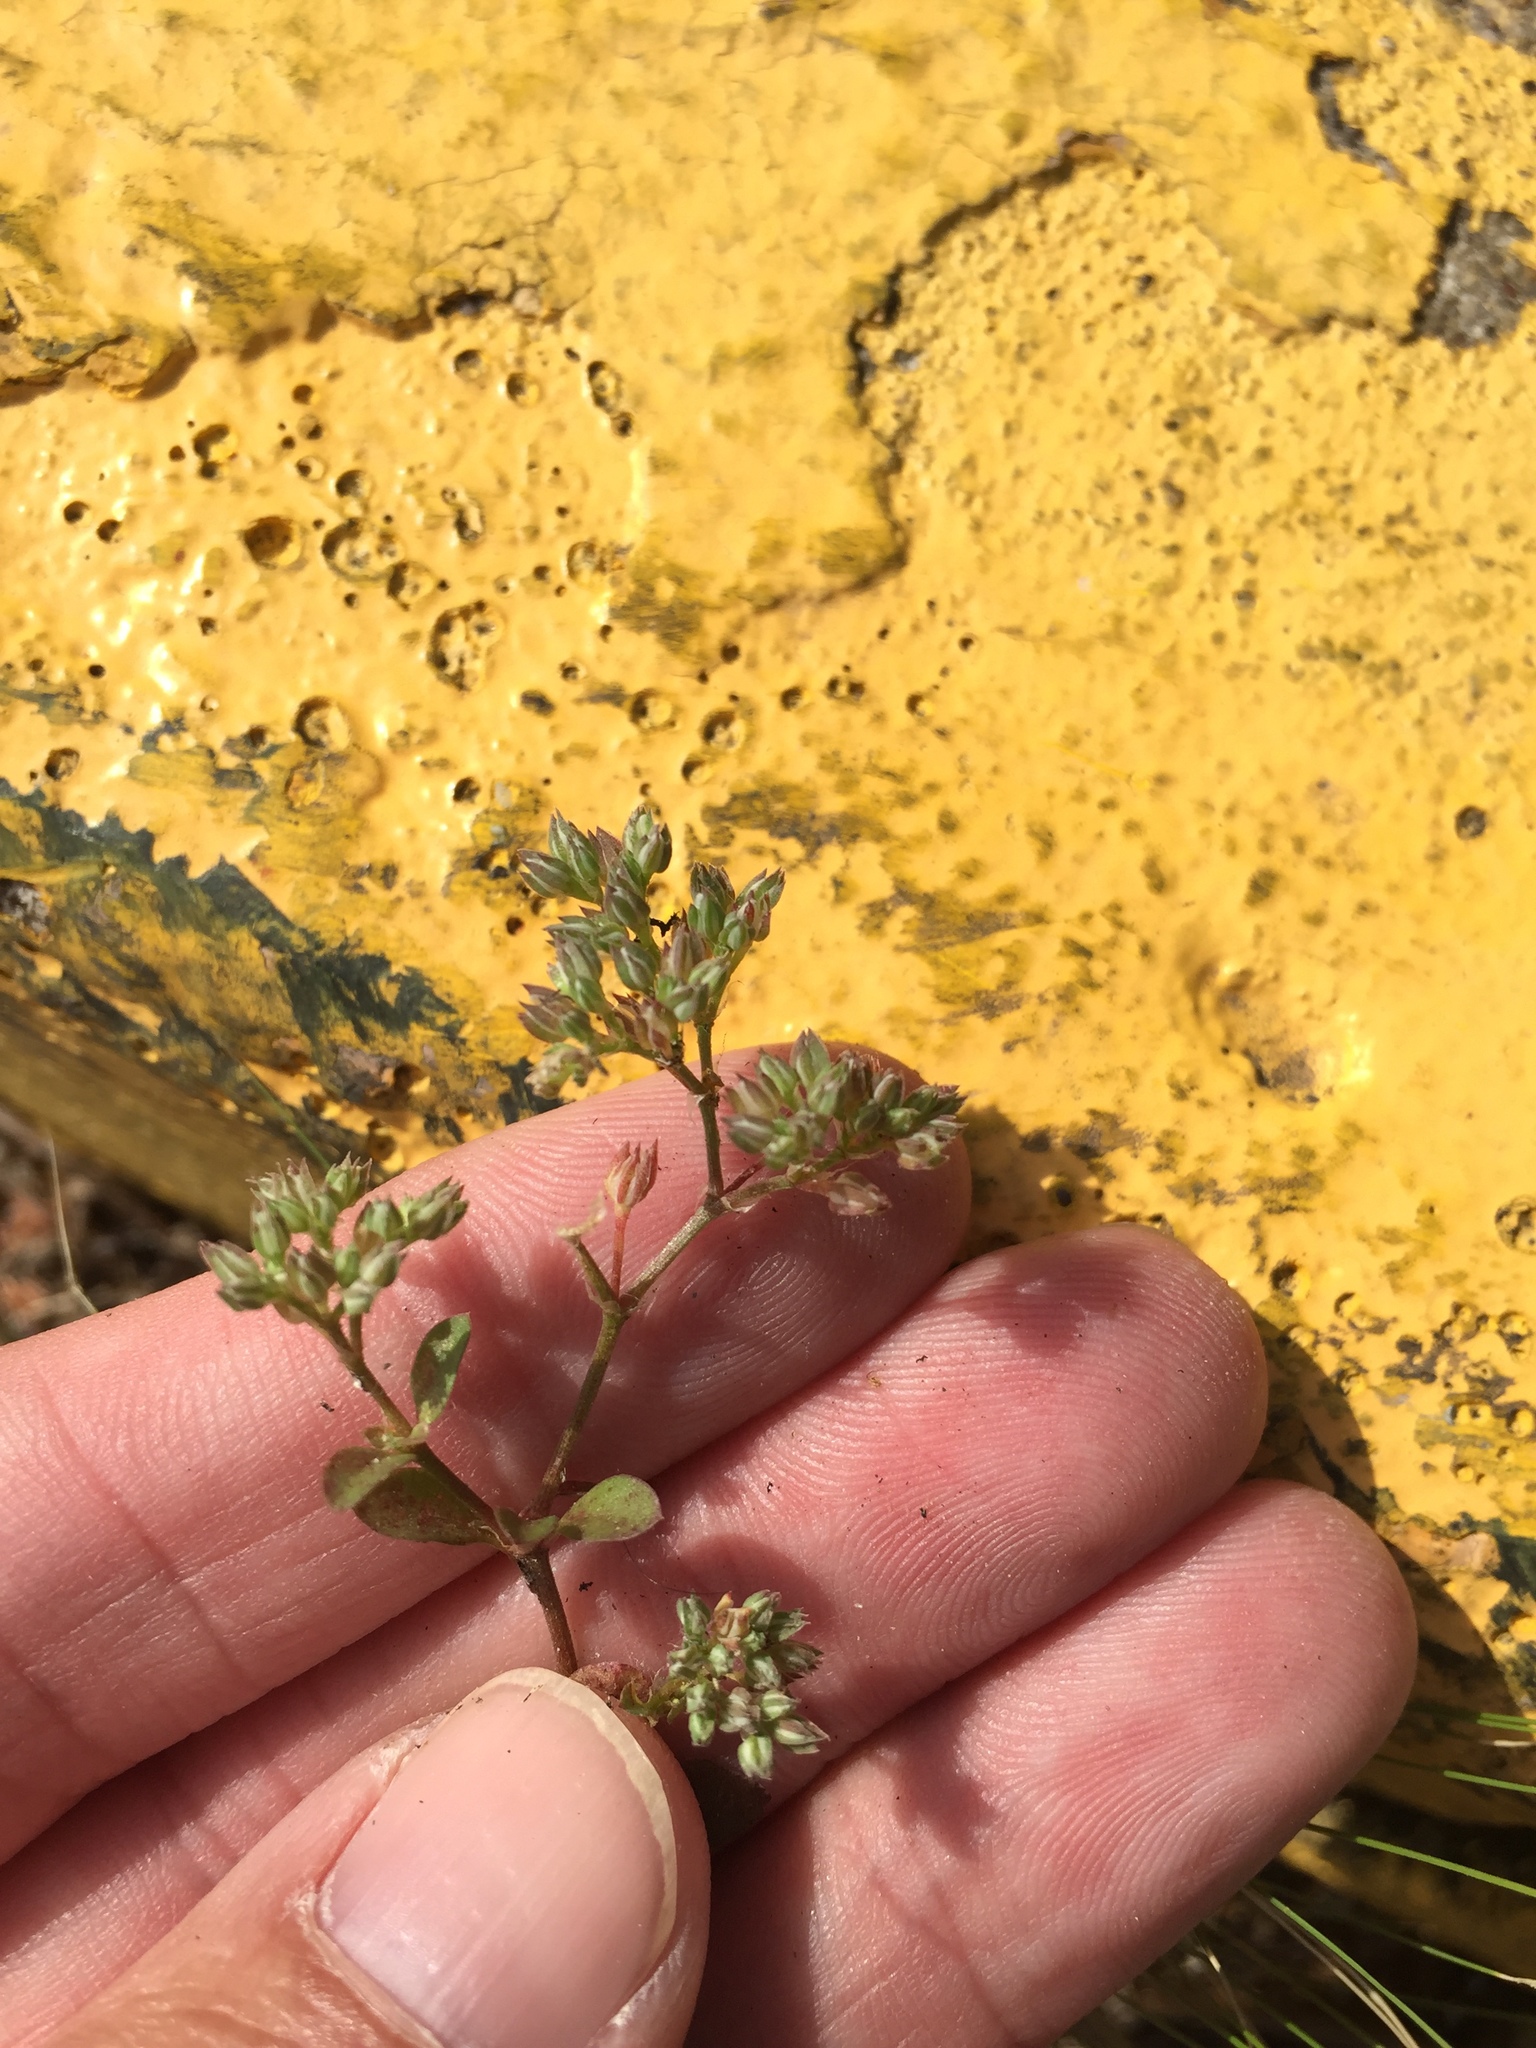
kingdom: Plantae
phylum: Tracheophyta
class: Magnoliopsida
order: Caryophyllales
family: Caryophyllaceae
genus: Polycarpon
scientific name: Polycarpon tetraphyllum
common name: Four-leaved all-seed
